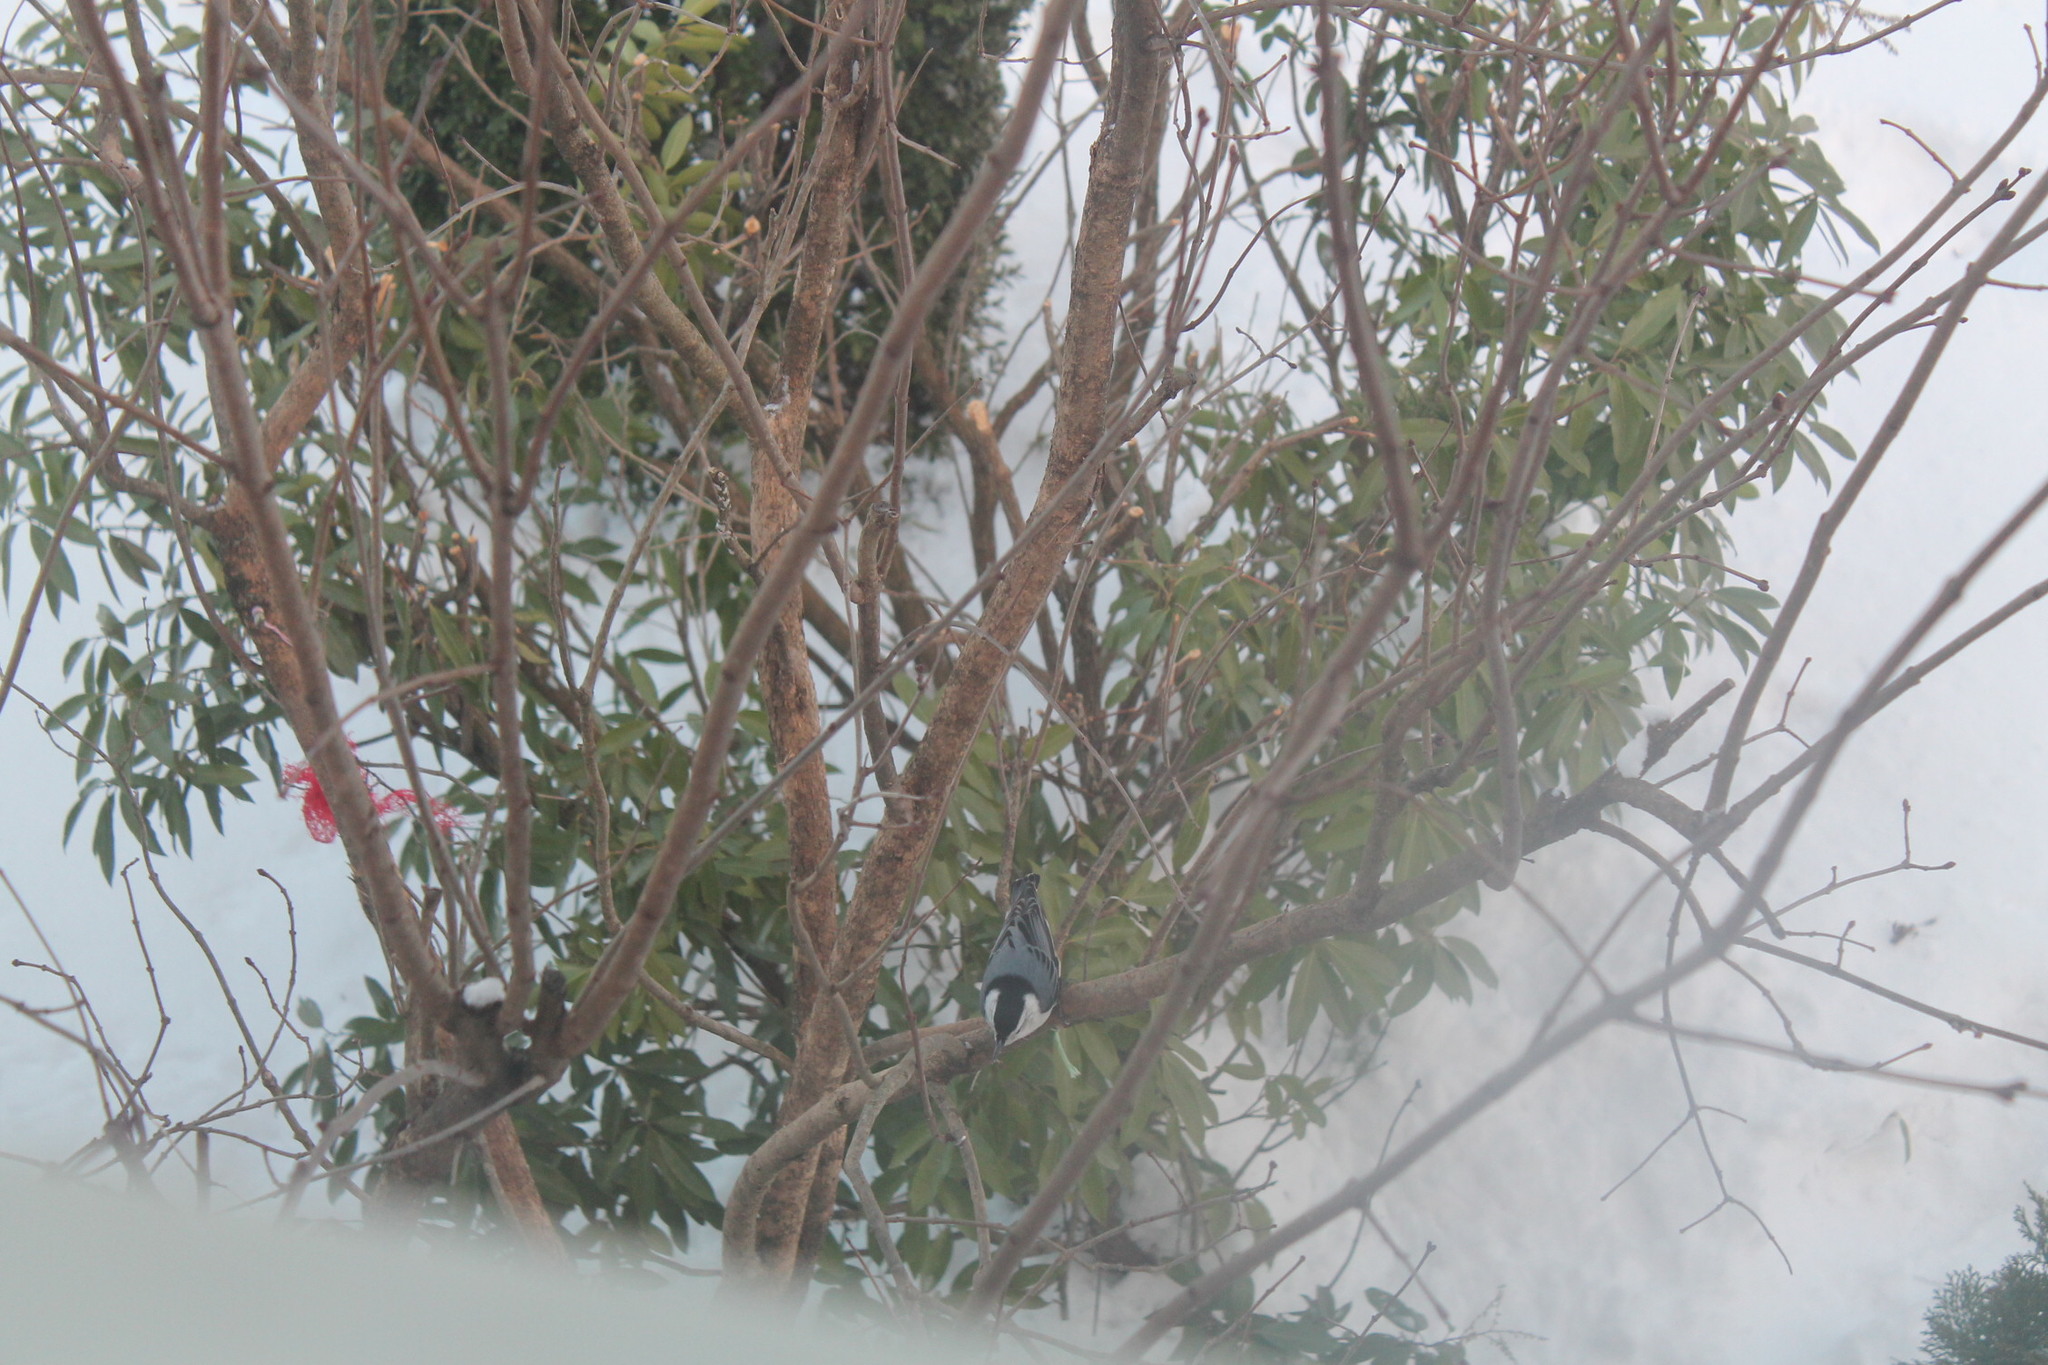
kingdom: Animalia
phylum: Chordata
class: Aves
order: Passeriformes
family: Sittidae
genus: Sitta
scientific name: Sitta carolinensis
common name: White-breasted nuthatch
